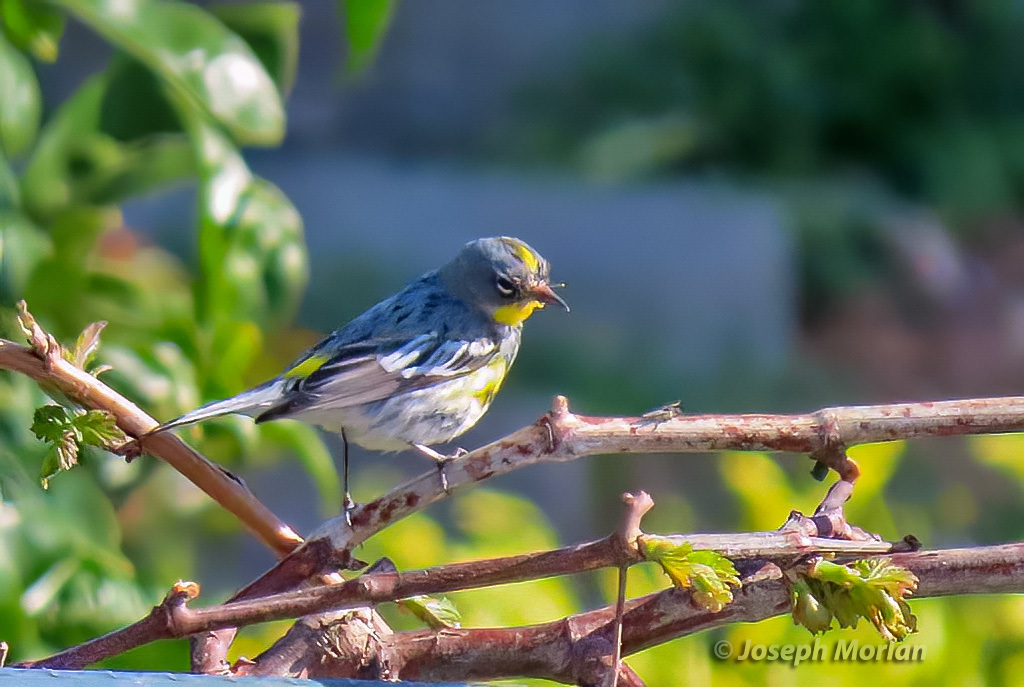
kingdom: Animalia
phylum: Chordata
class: Aves
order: Passeriformes
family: Parulidae
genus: Setophaga
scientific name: Setophaga coronata
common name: Myrtle warbler
